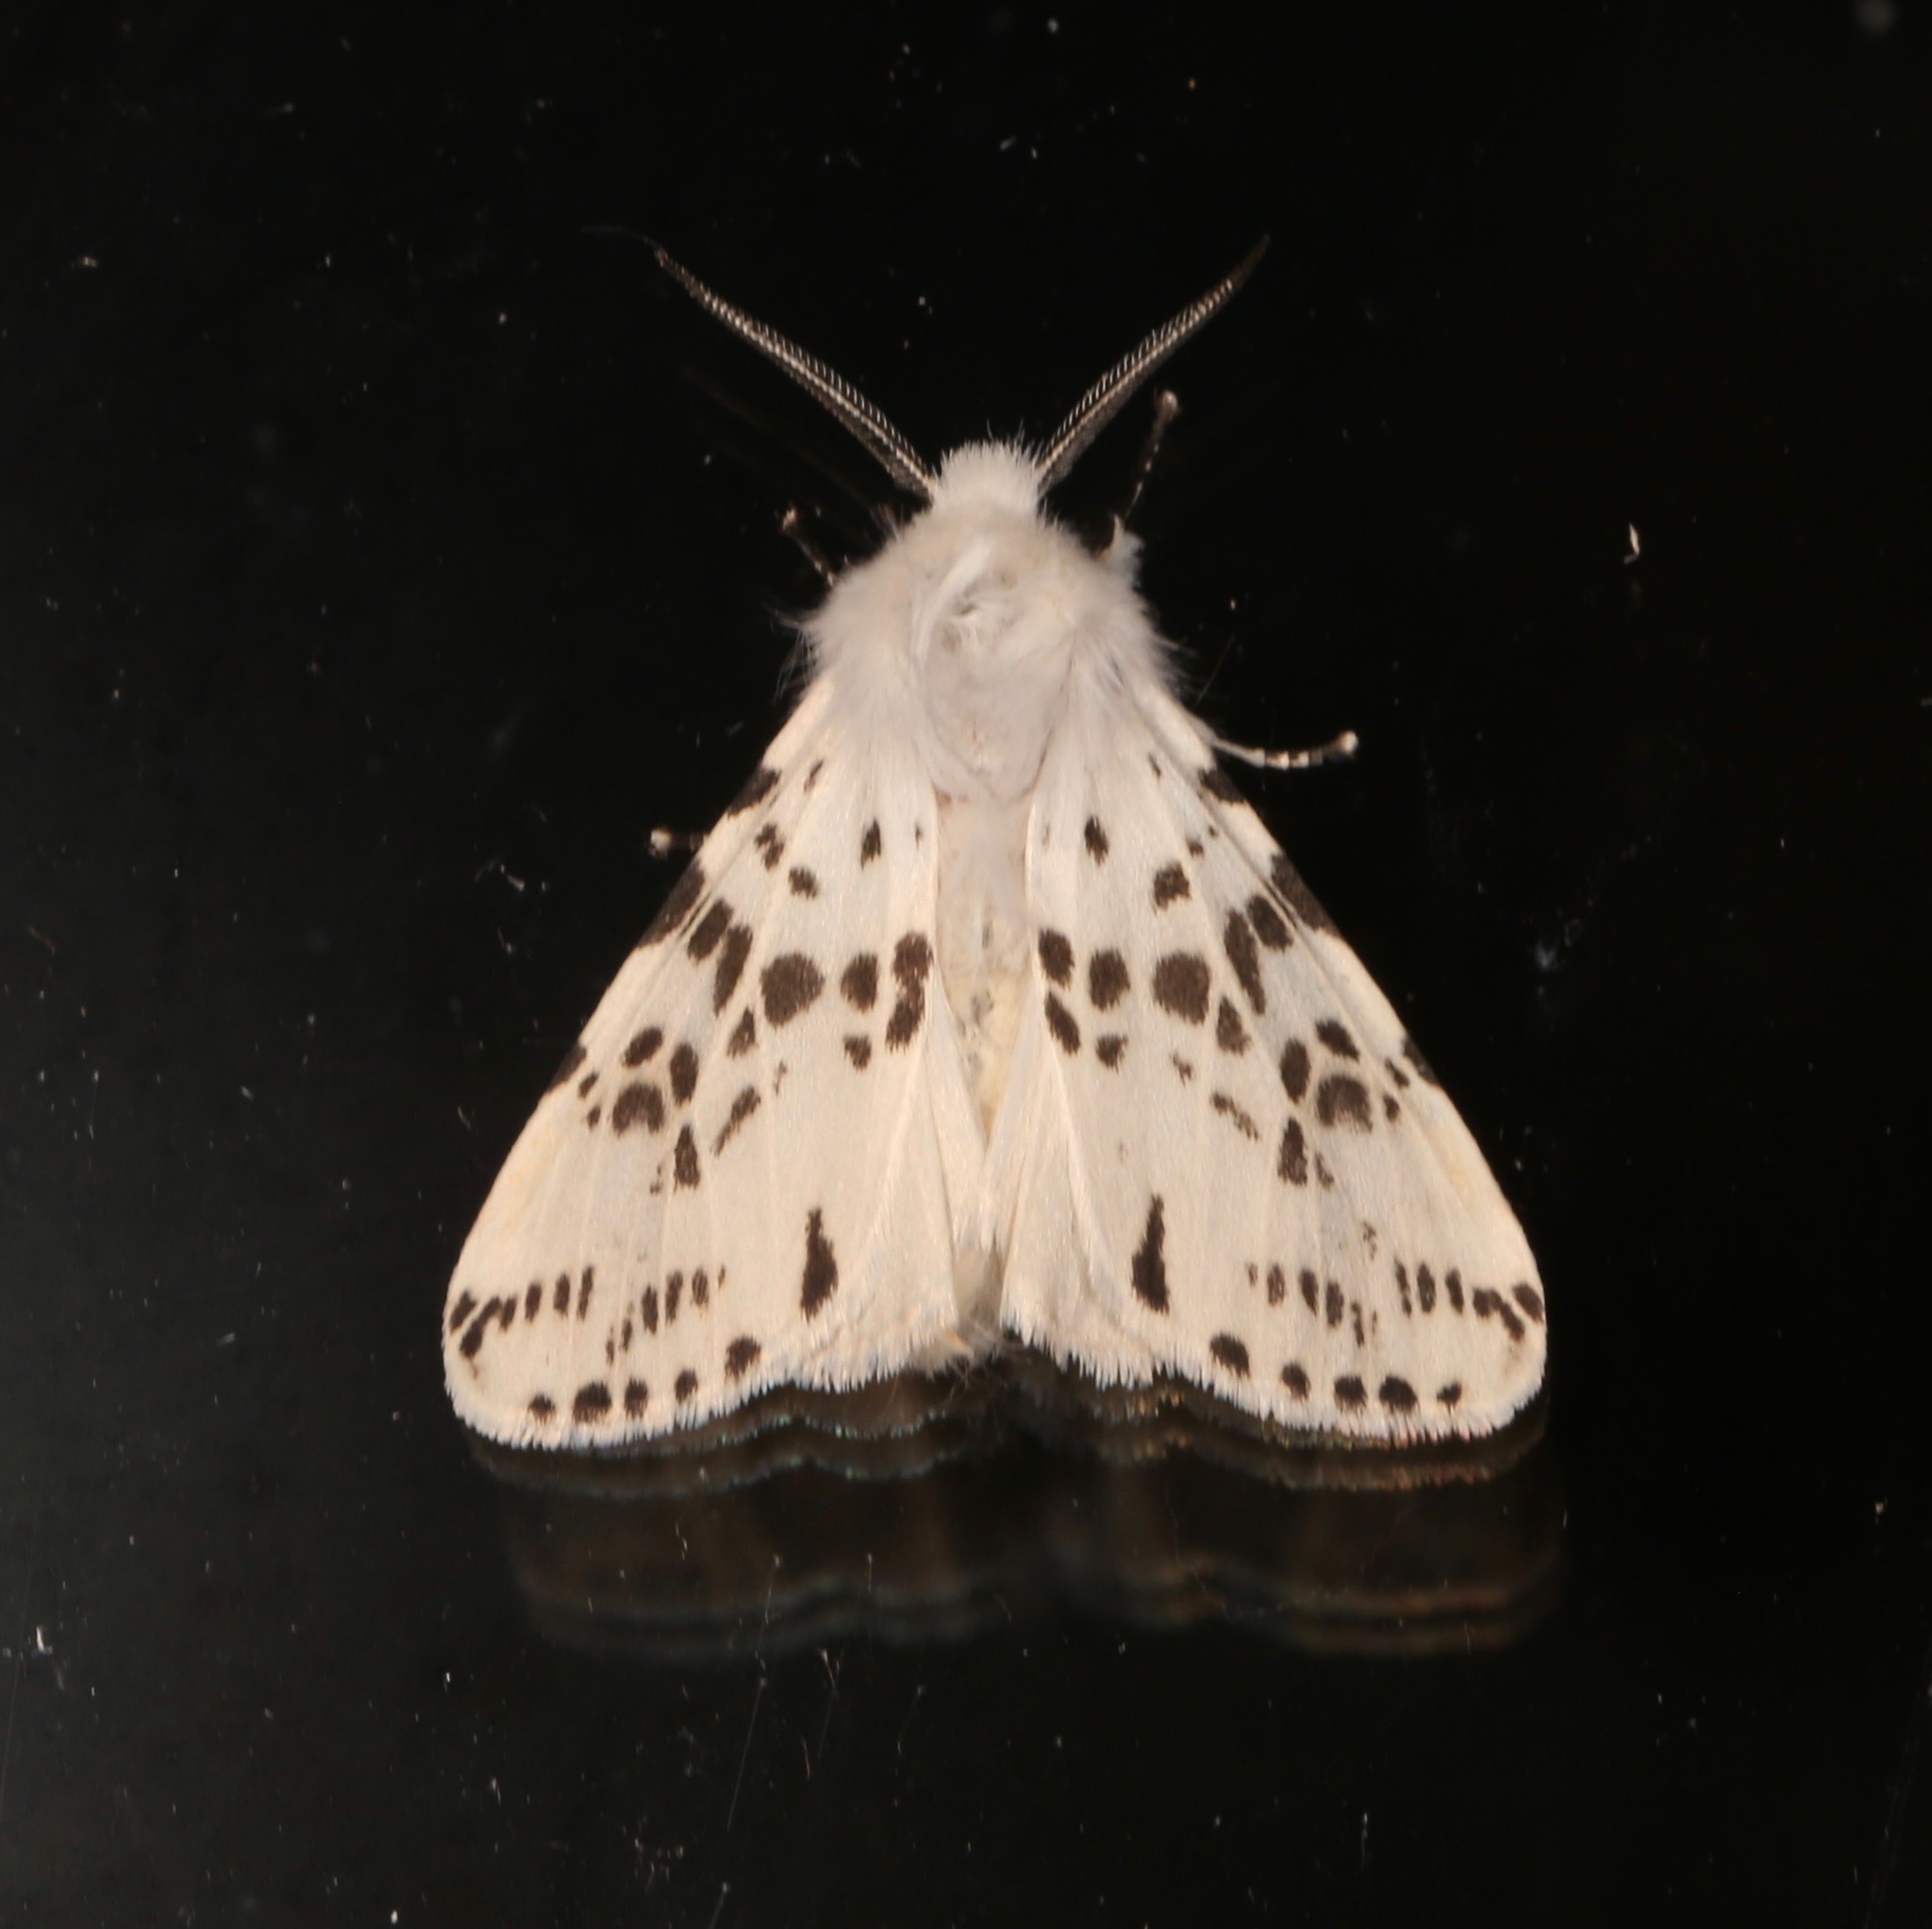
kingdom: Animalia
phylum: Arthropoda
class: Insecta
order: Lepidoptera
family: Erebidae
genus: Hyphantria
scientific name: Hyphantria cunea
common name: American white moth
